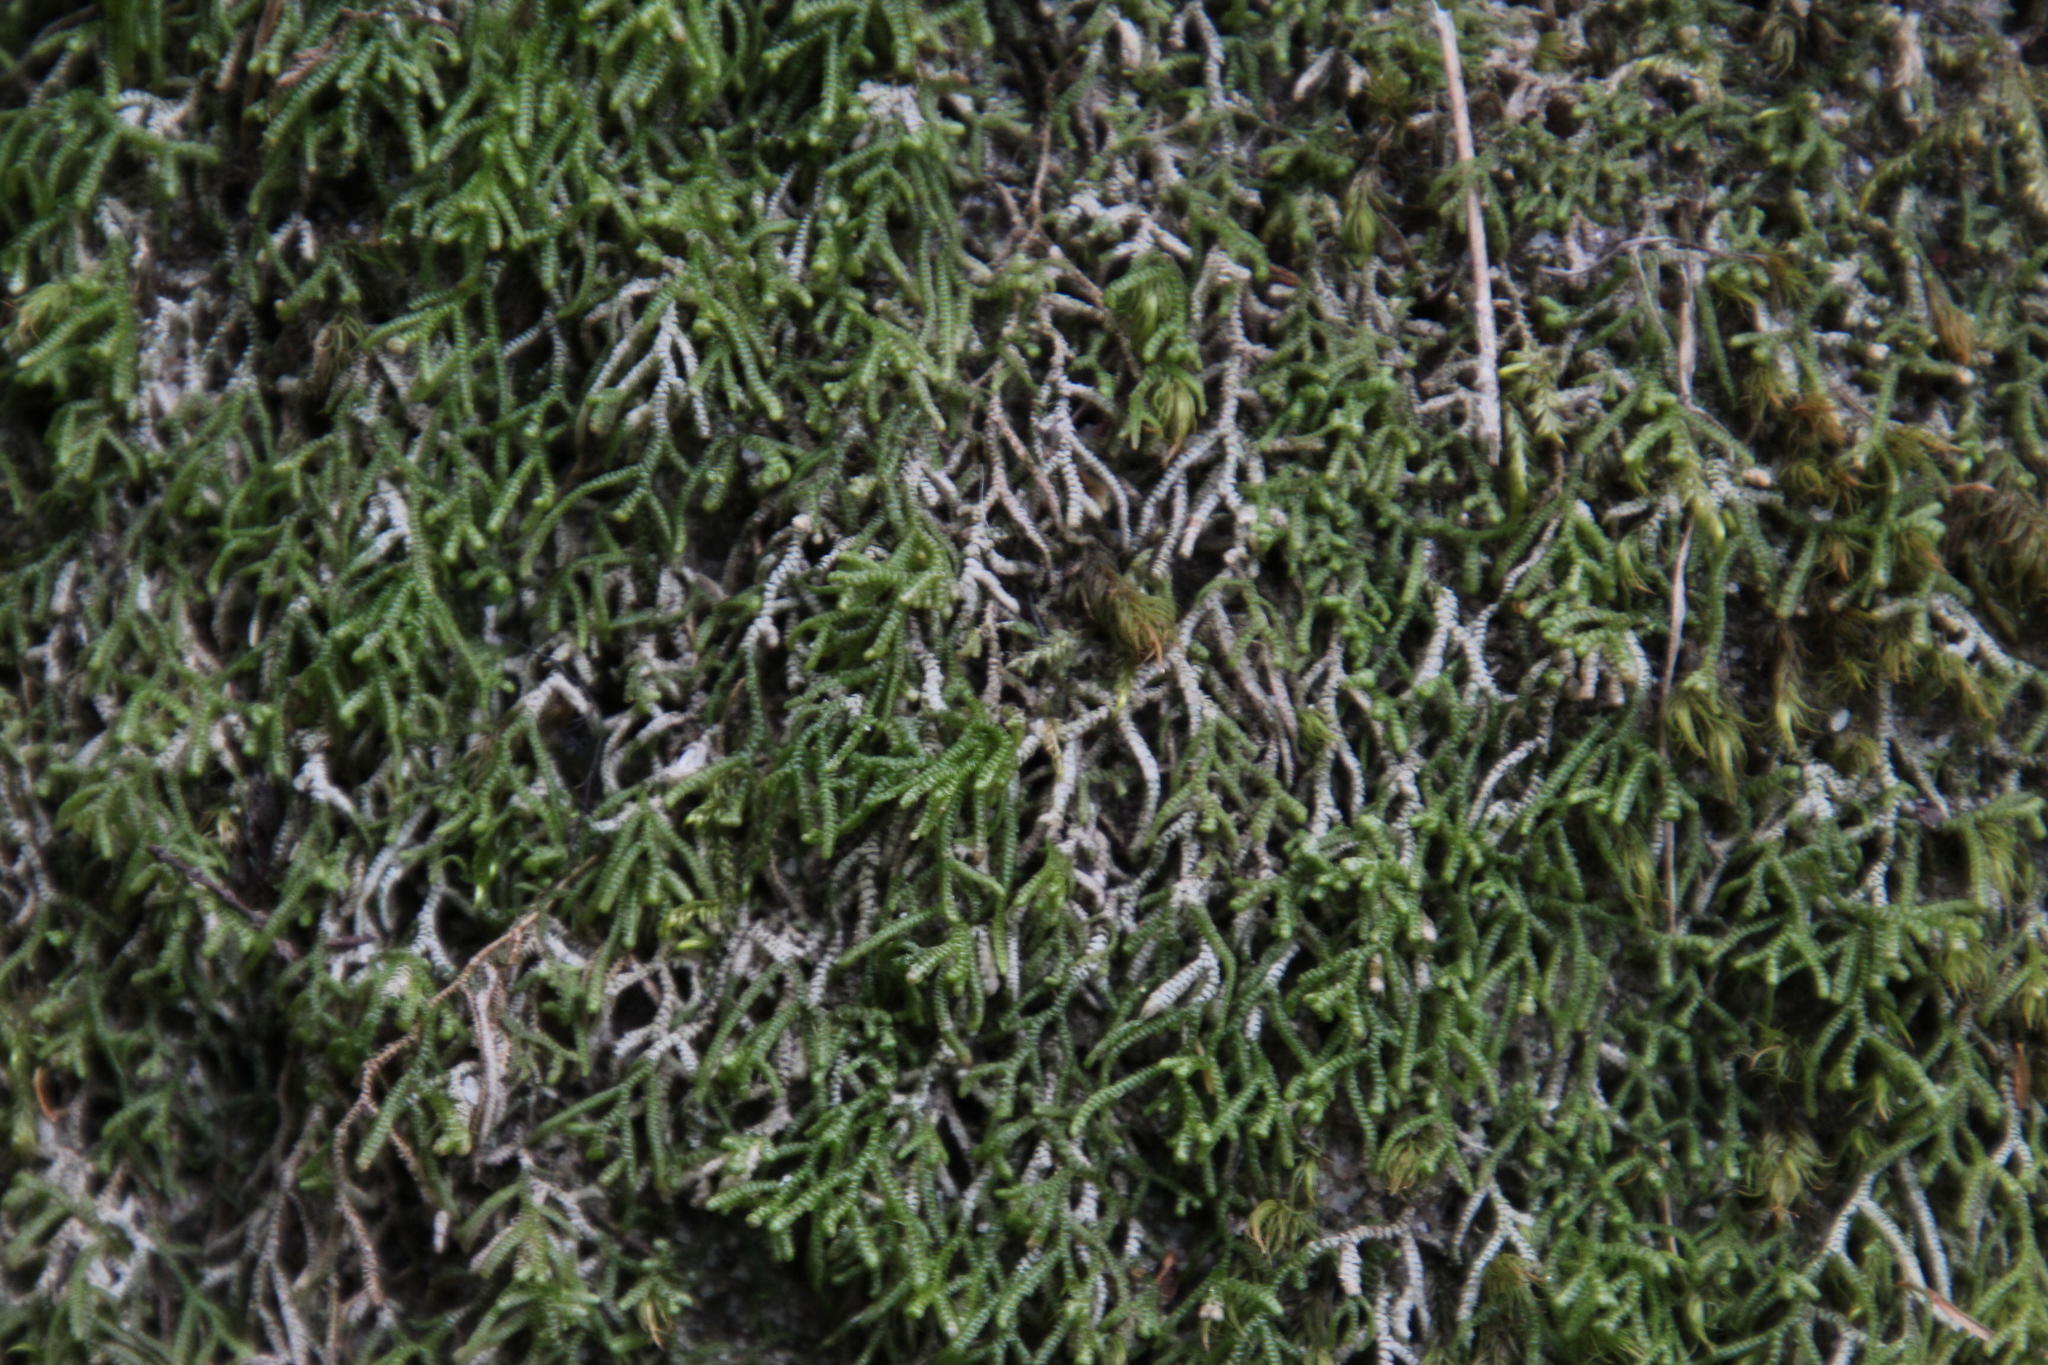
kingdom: Plantae
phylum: Marchantiophyta
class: Jungermanniopsida
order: Jungermanniales
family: Lepidoziaceae
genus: Lepidozia
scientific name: Lepidozia cupressina
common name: Rock fingerwort
